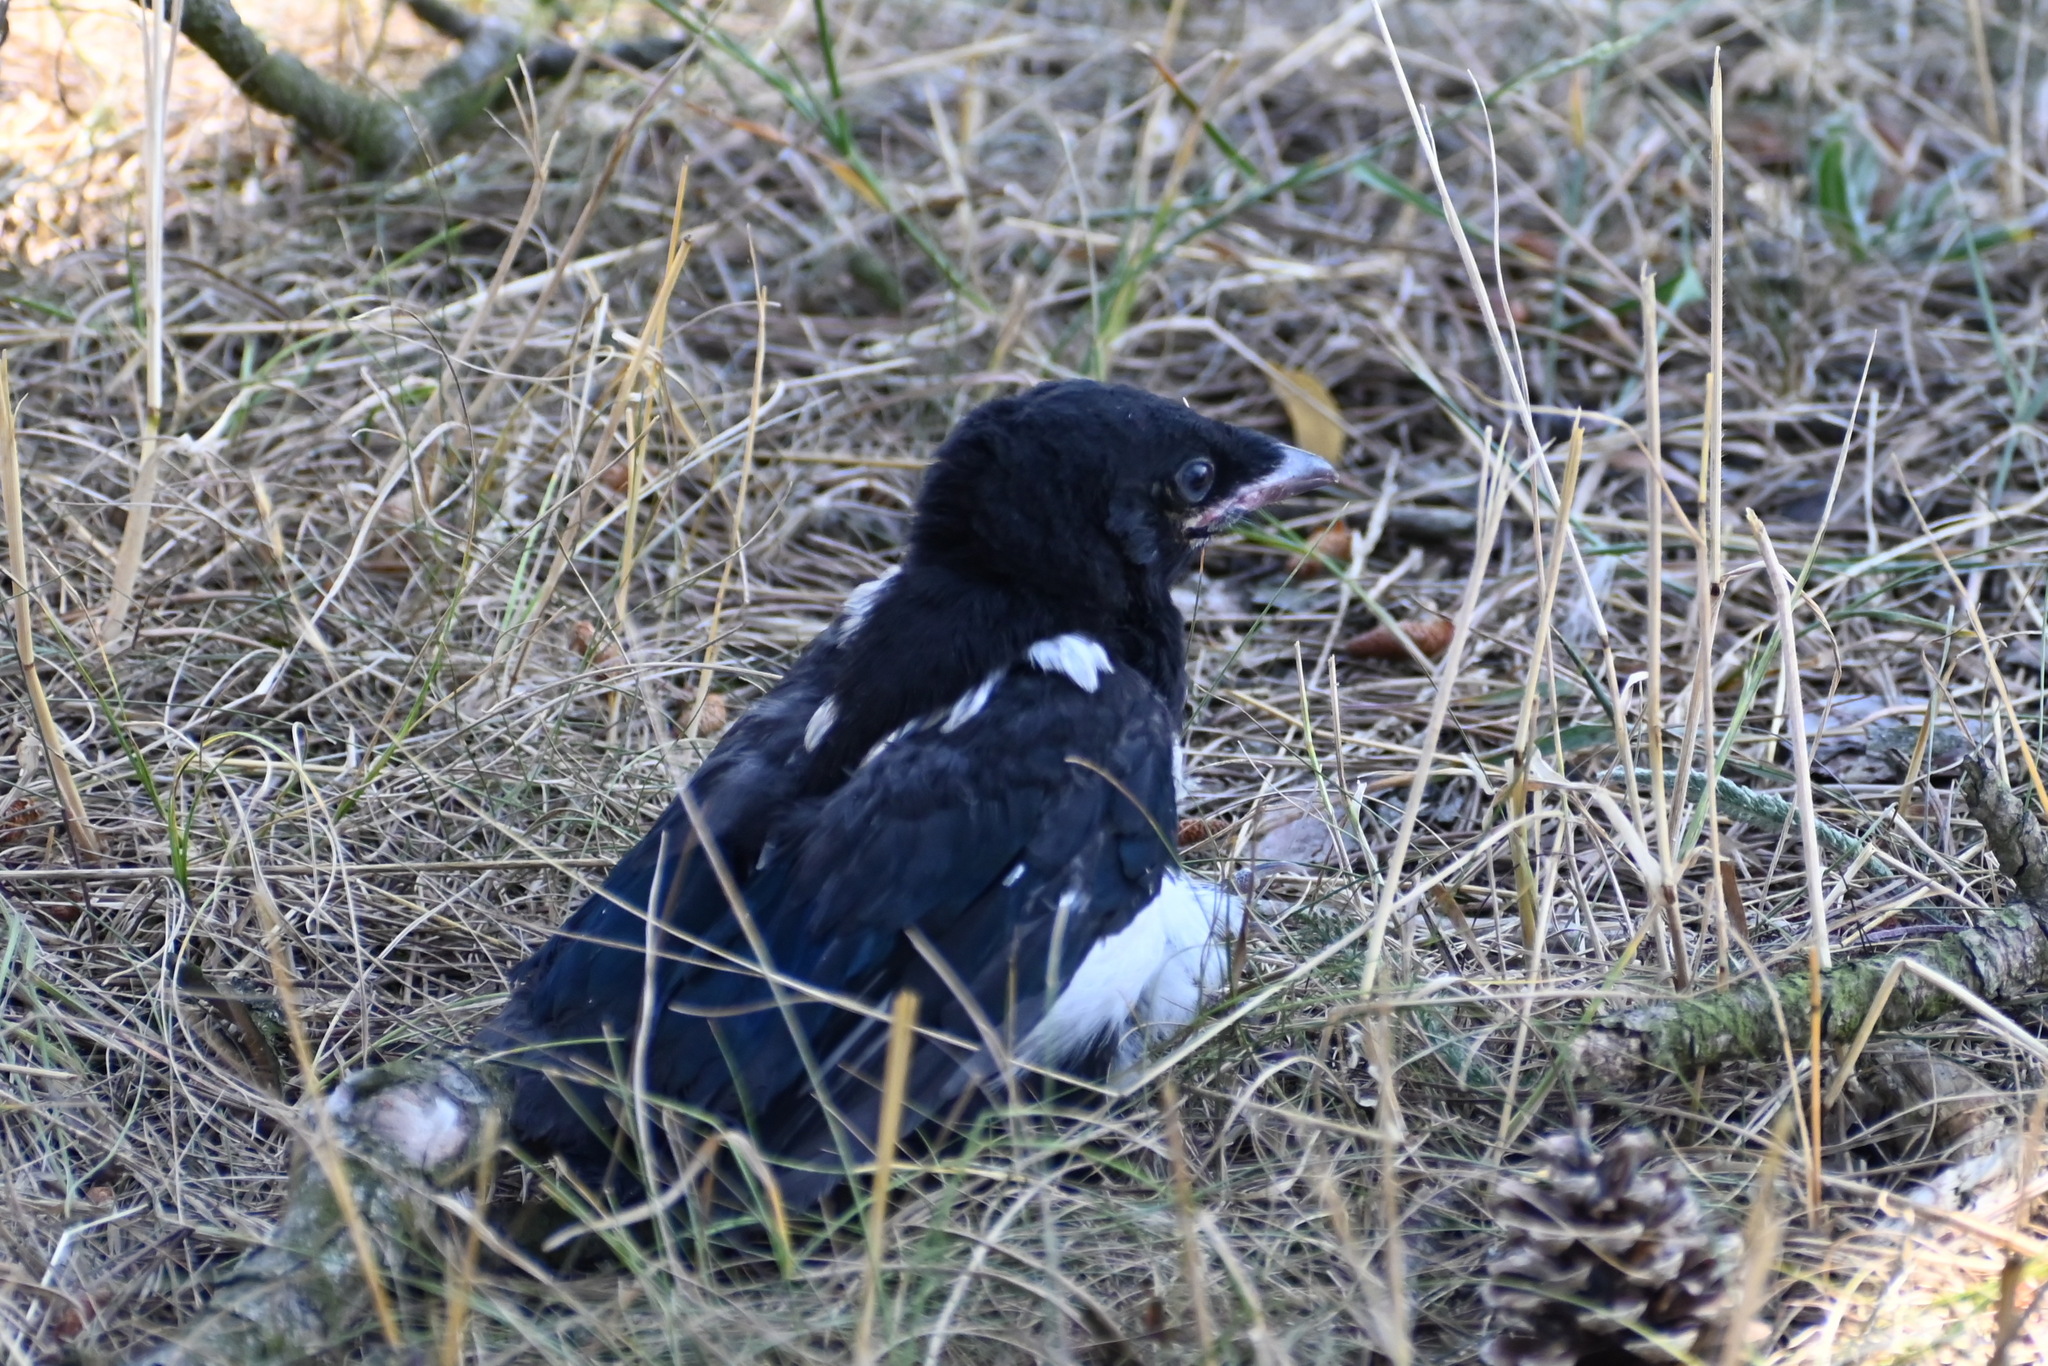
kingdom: Animalia
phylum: Chordata
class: Aves
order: Passeriformes
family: Corvidae
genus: Pica
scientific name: Pica pica
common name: Eurasian magpie
